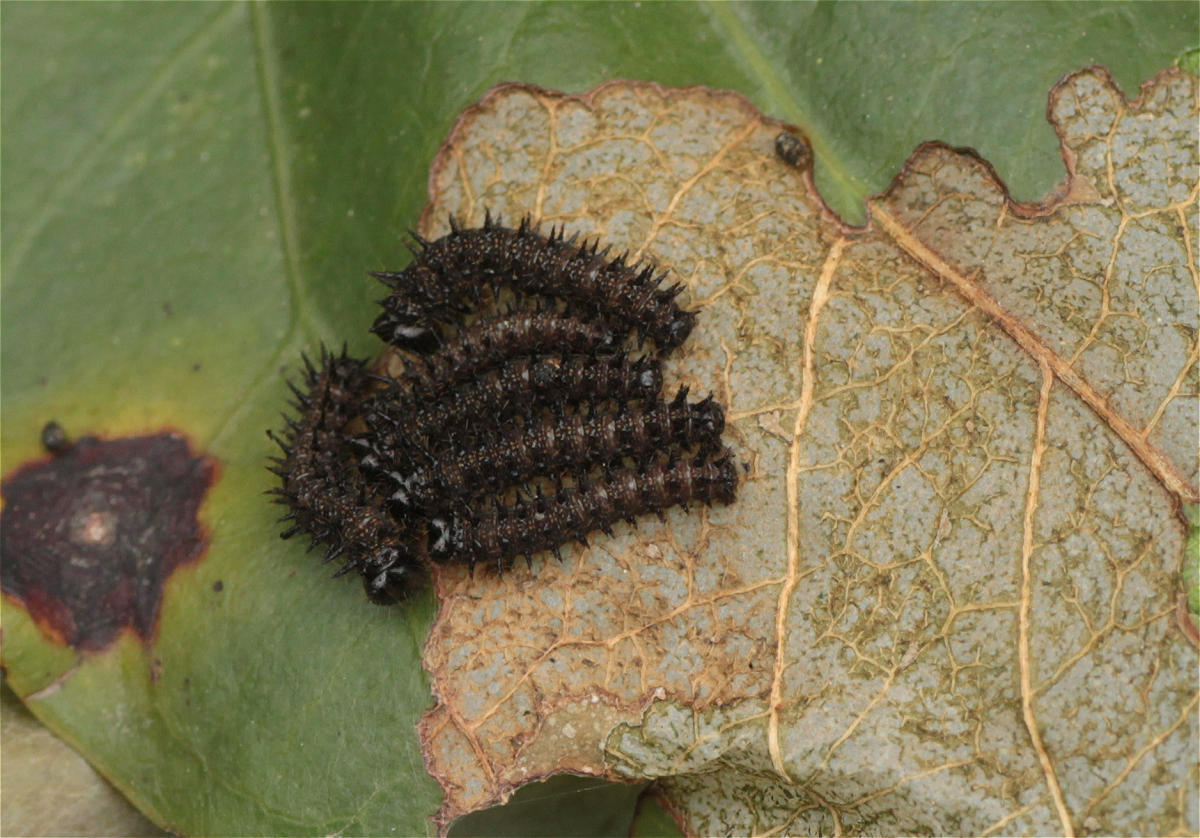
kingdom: Animalia
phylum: Arthropoda
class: Insecta
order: Lepidoptera
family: Nymphalidae
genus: Dione
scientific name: Dione juno
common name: Juno silverspot
